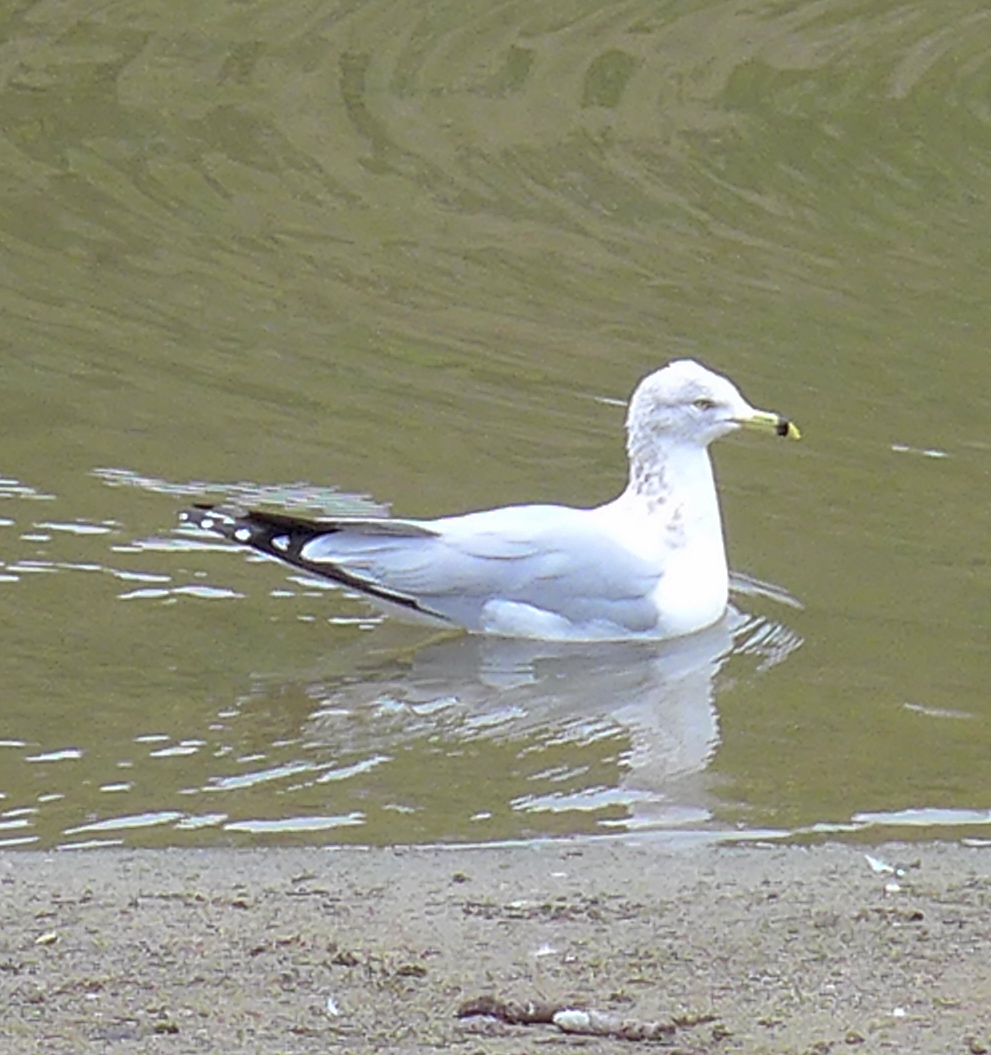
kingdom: Animalia
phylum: Chordata
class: Aves
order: Charadriiformes
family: Laridae
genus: Larus
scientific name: Larus delawarensis
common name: Ring-billed gull
